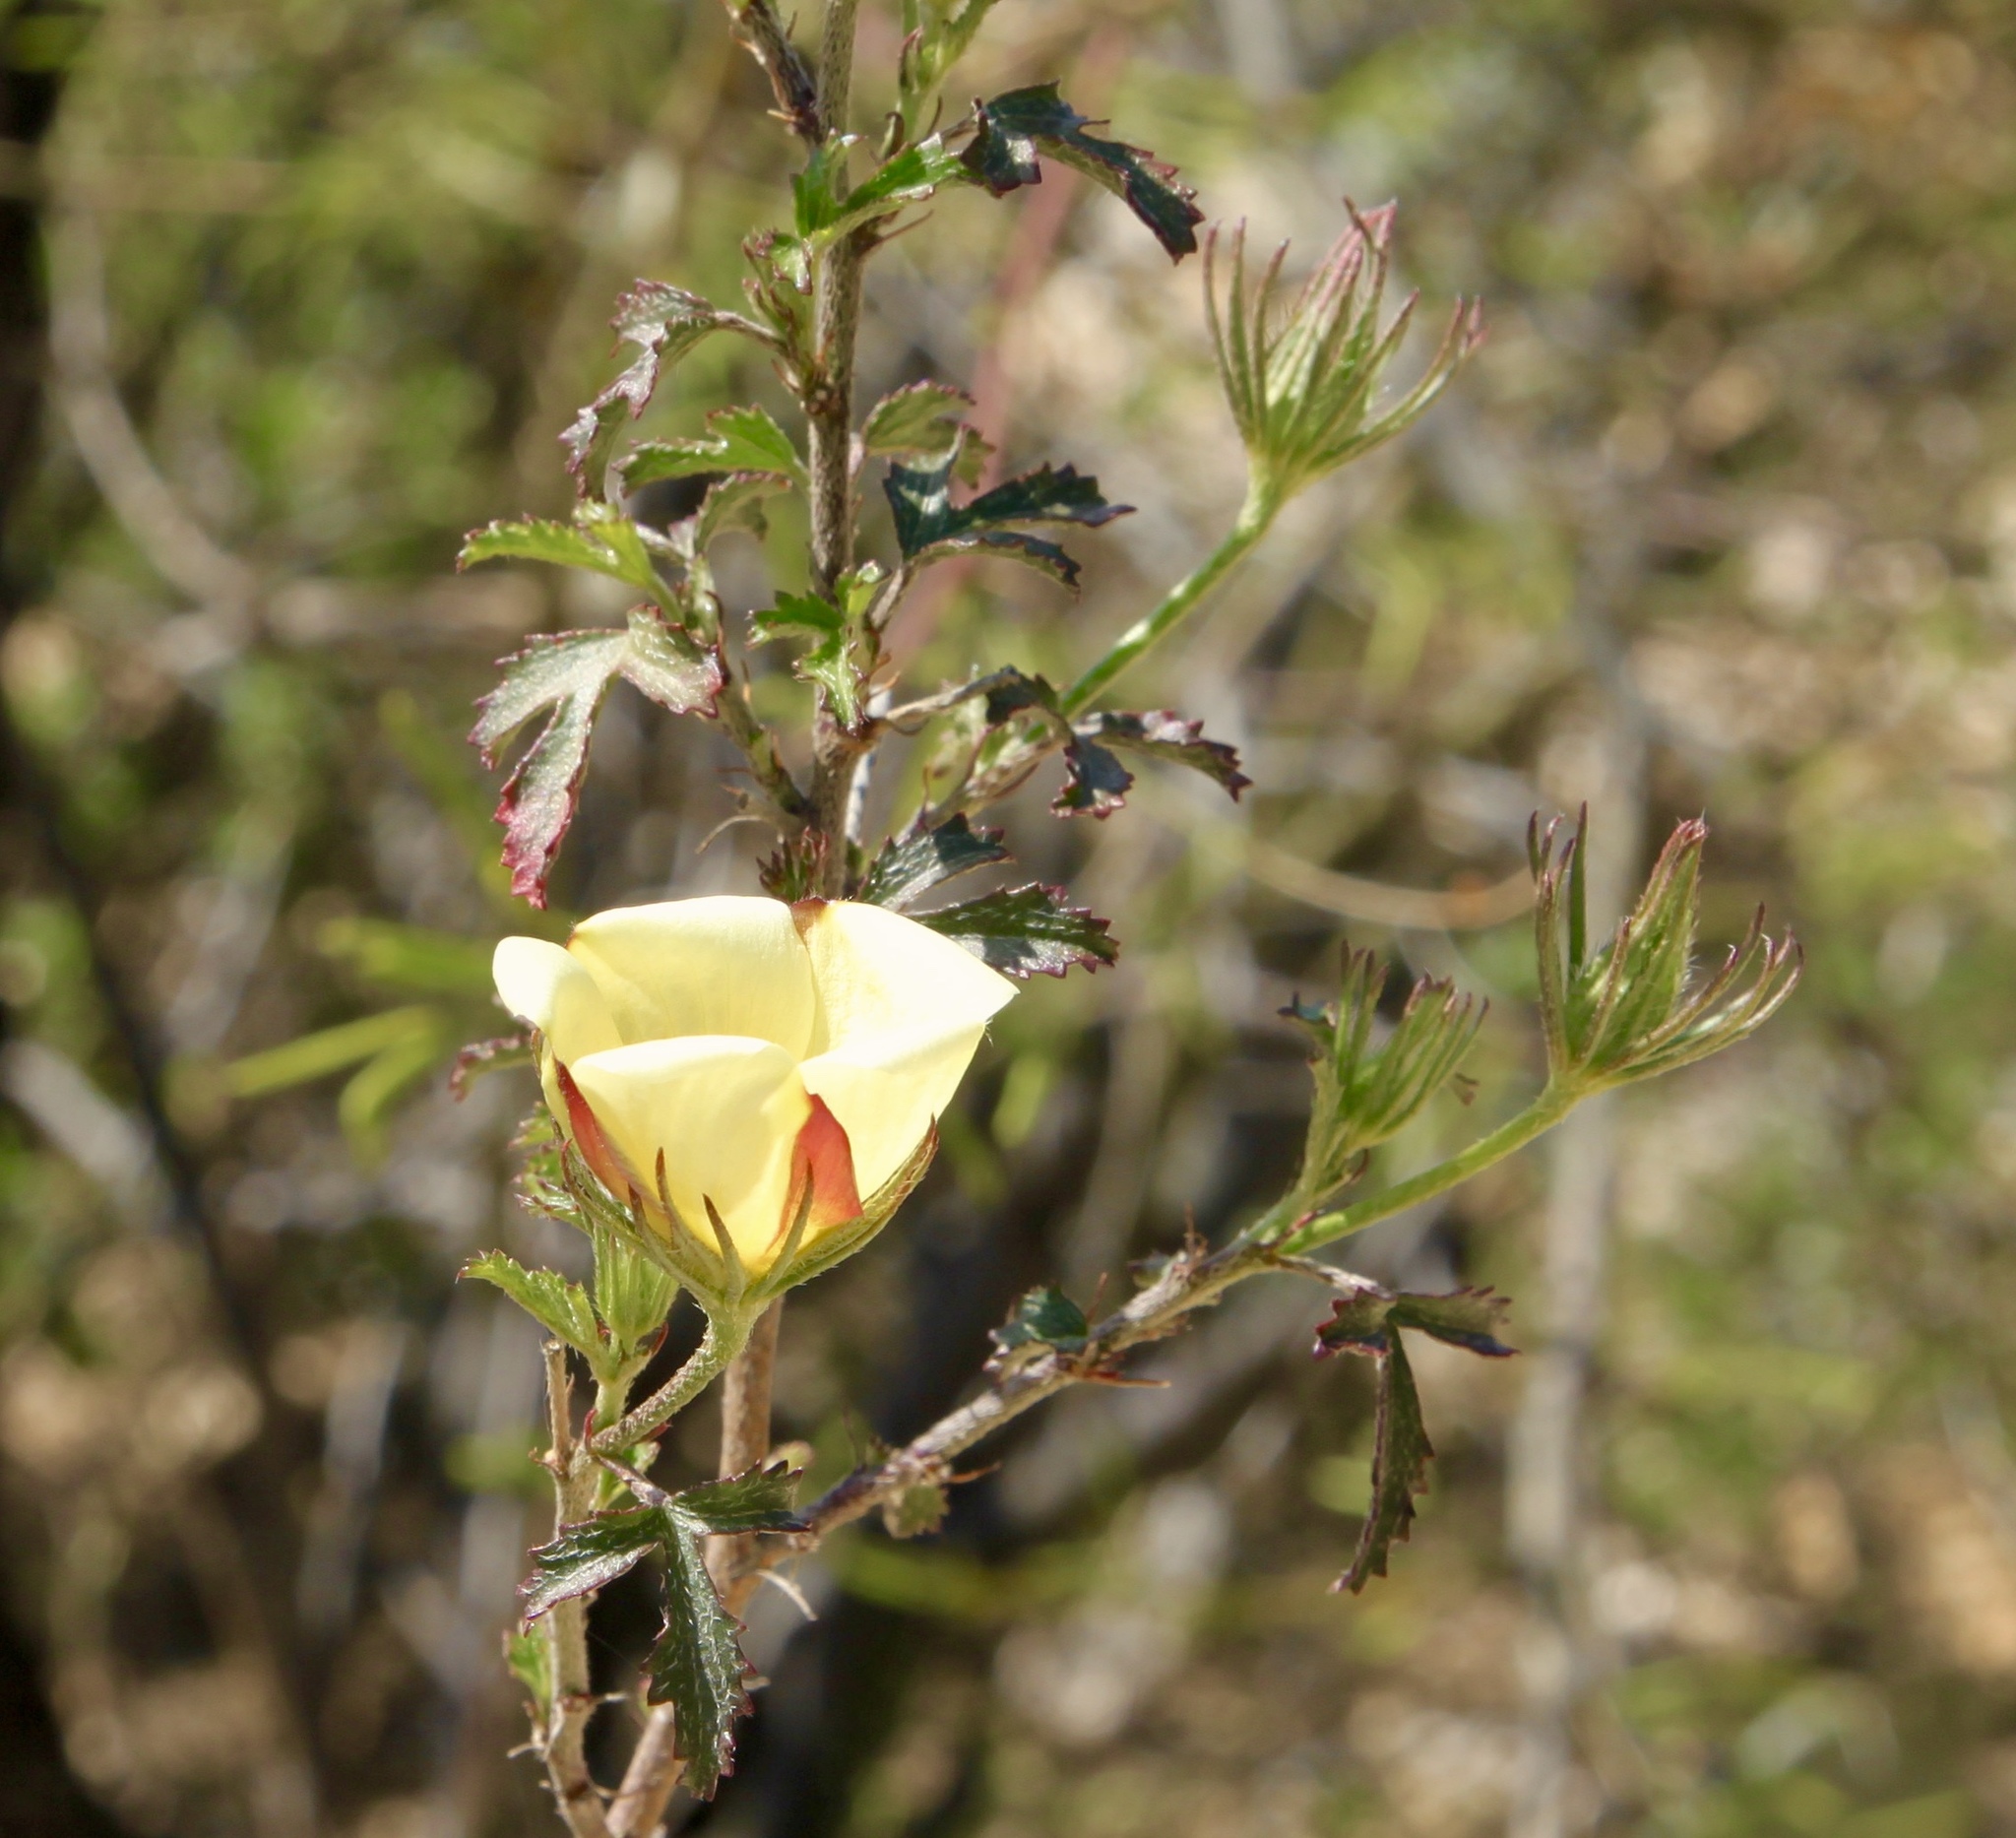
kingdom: Plantae
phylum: Tracheophyta
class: Magnoliopsida
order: Malvales
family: Malvaceae
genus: Hibiscus
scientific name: Hibiscus coulteri
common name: Desert rose-mallow
